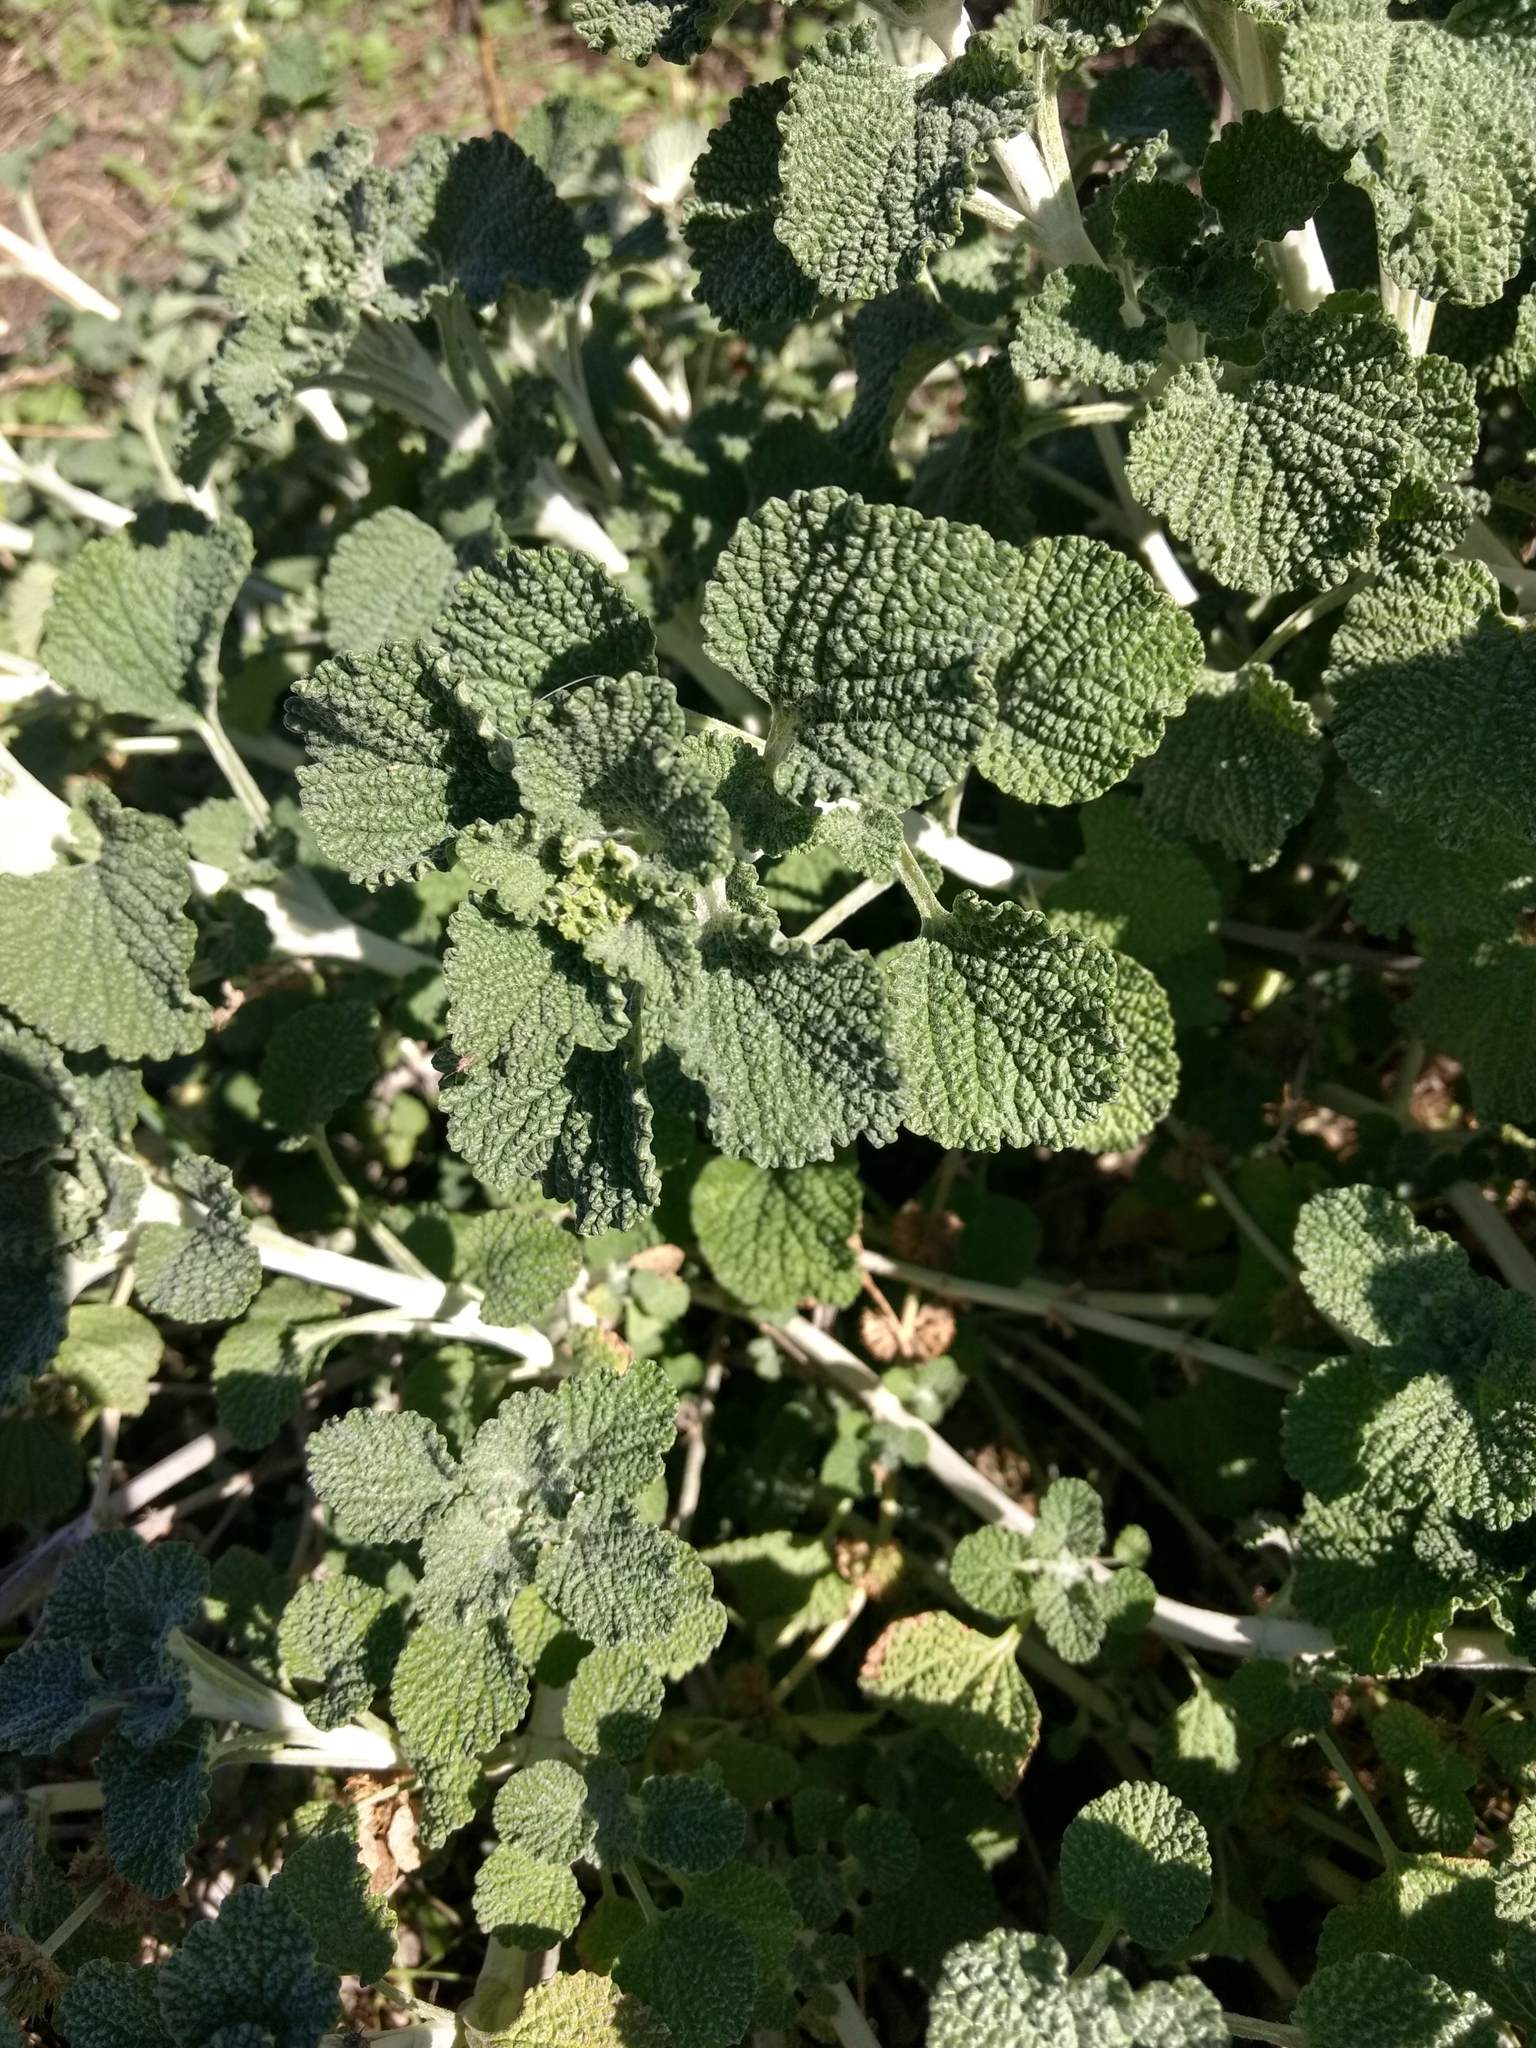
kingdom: Plantae
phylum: Tracheophyta
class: Magnoliopsida
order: Lamiales
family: Lamiaceae
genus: Marrubium
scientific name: Marrubium vulgare
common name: Horehound
